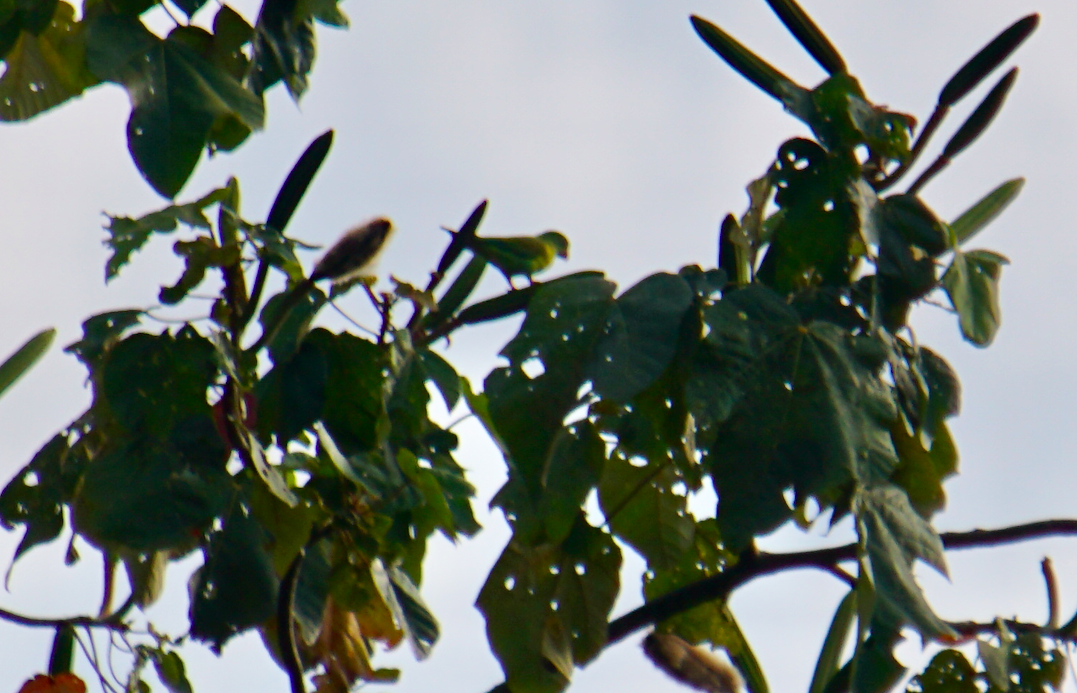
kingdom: Animalia
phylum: Chordata
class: Aves
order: Psittaciformes
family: Psittacidae
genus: Brotogeris
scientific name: Brotogeris jugularis
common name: Orange-chinned parakeet
